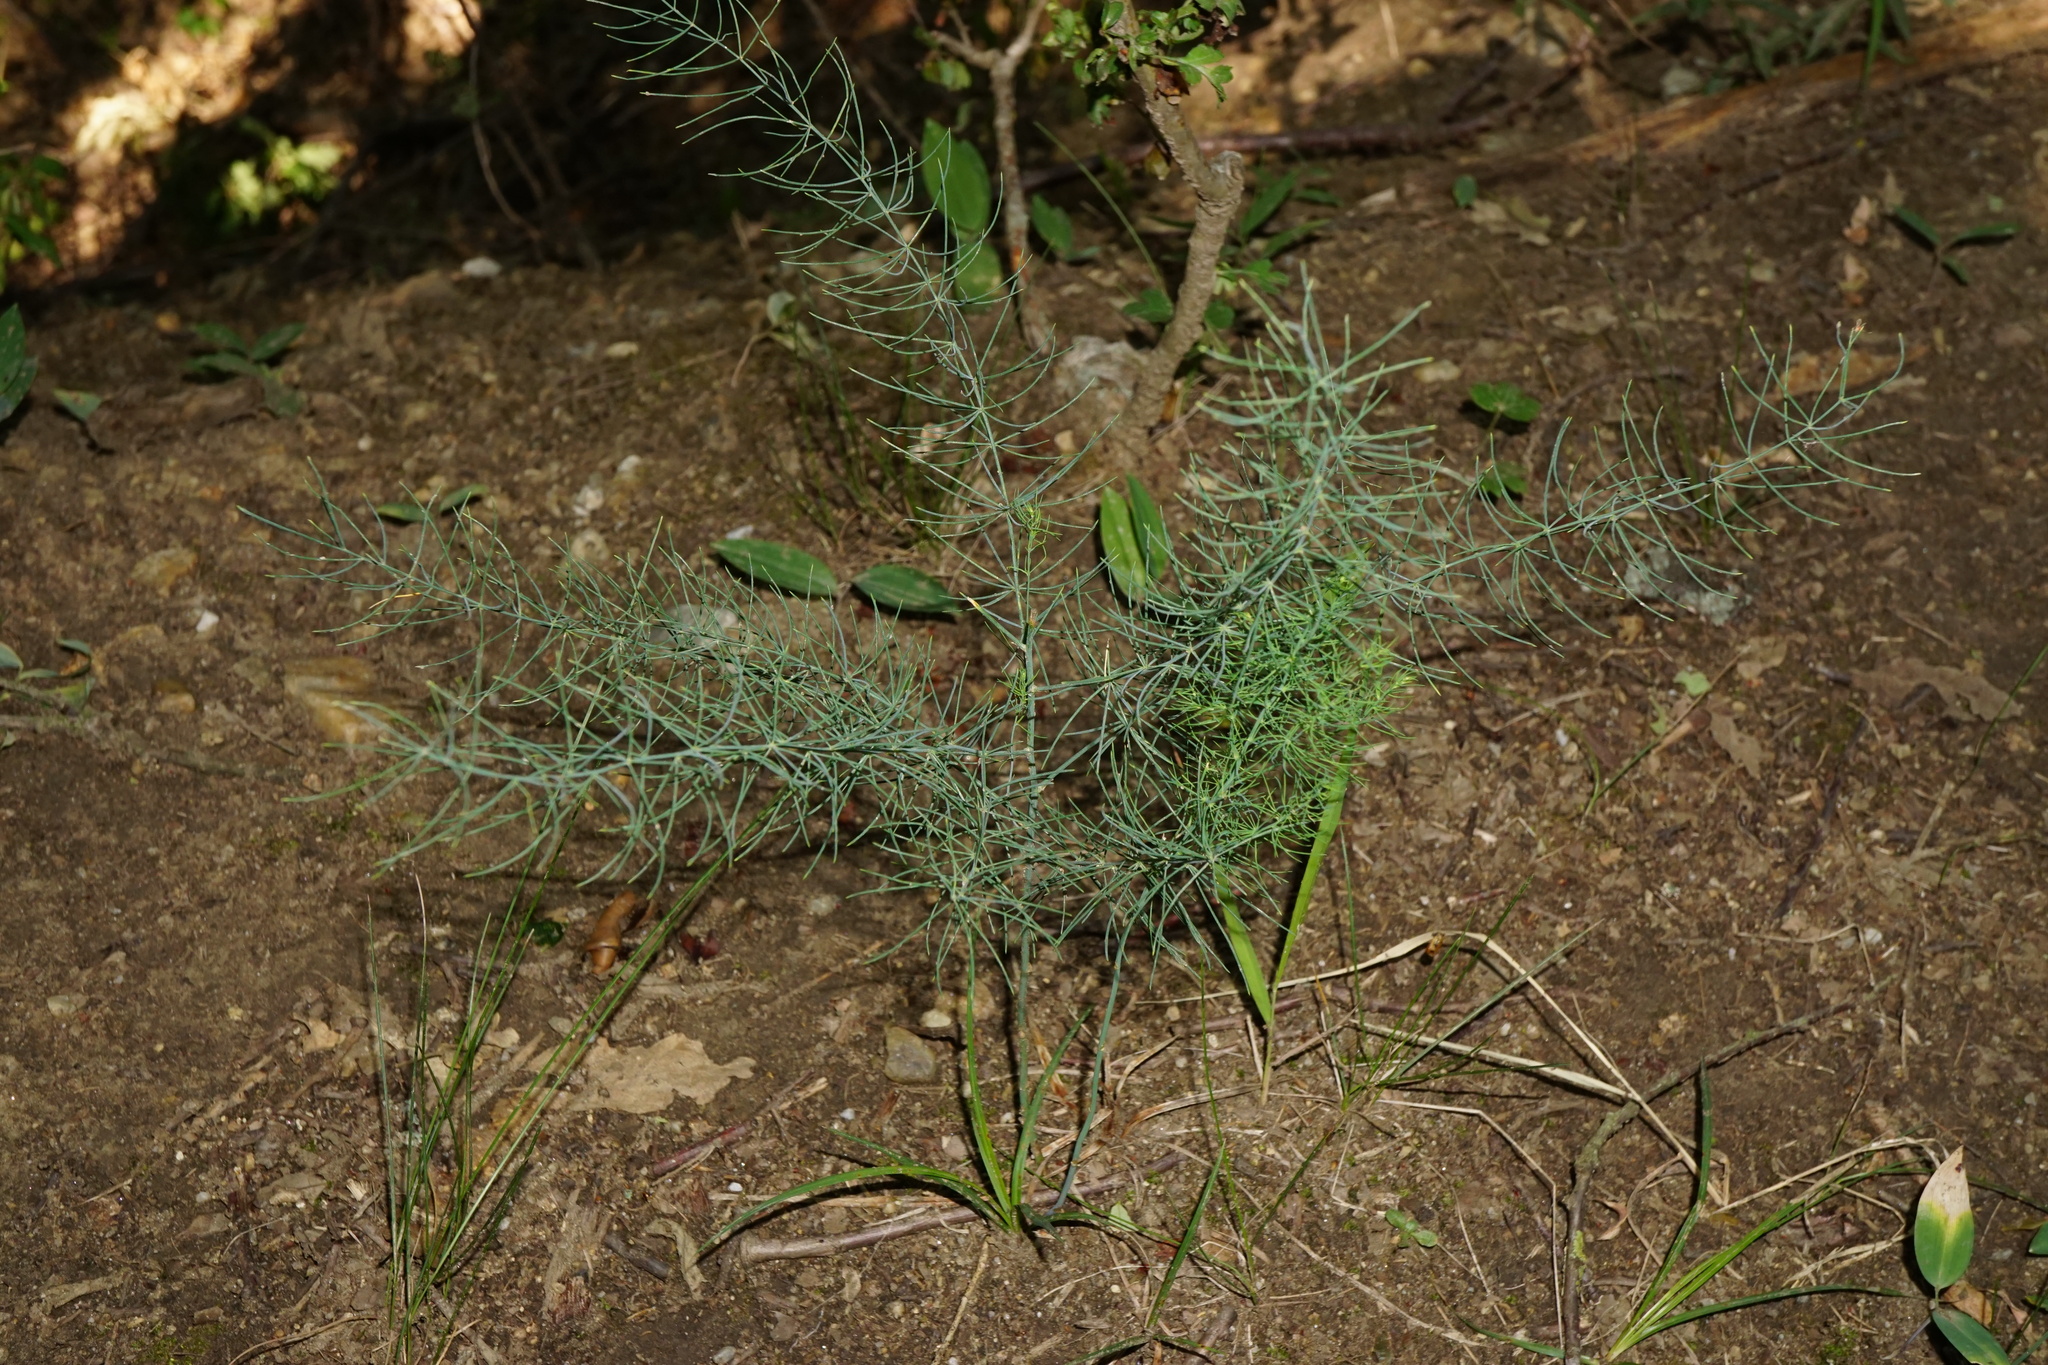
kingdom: Plantae
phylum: Tracheophyta
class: Liliopsida
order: Asparagales
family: Asparagaceae
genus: Asparagus
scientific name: Asparagus officinalis
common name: Garden asparagus
